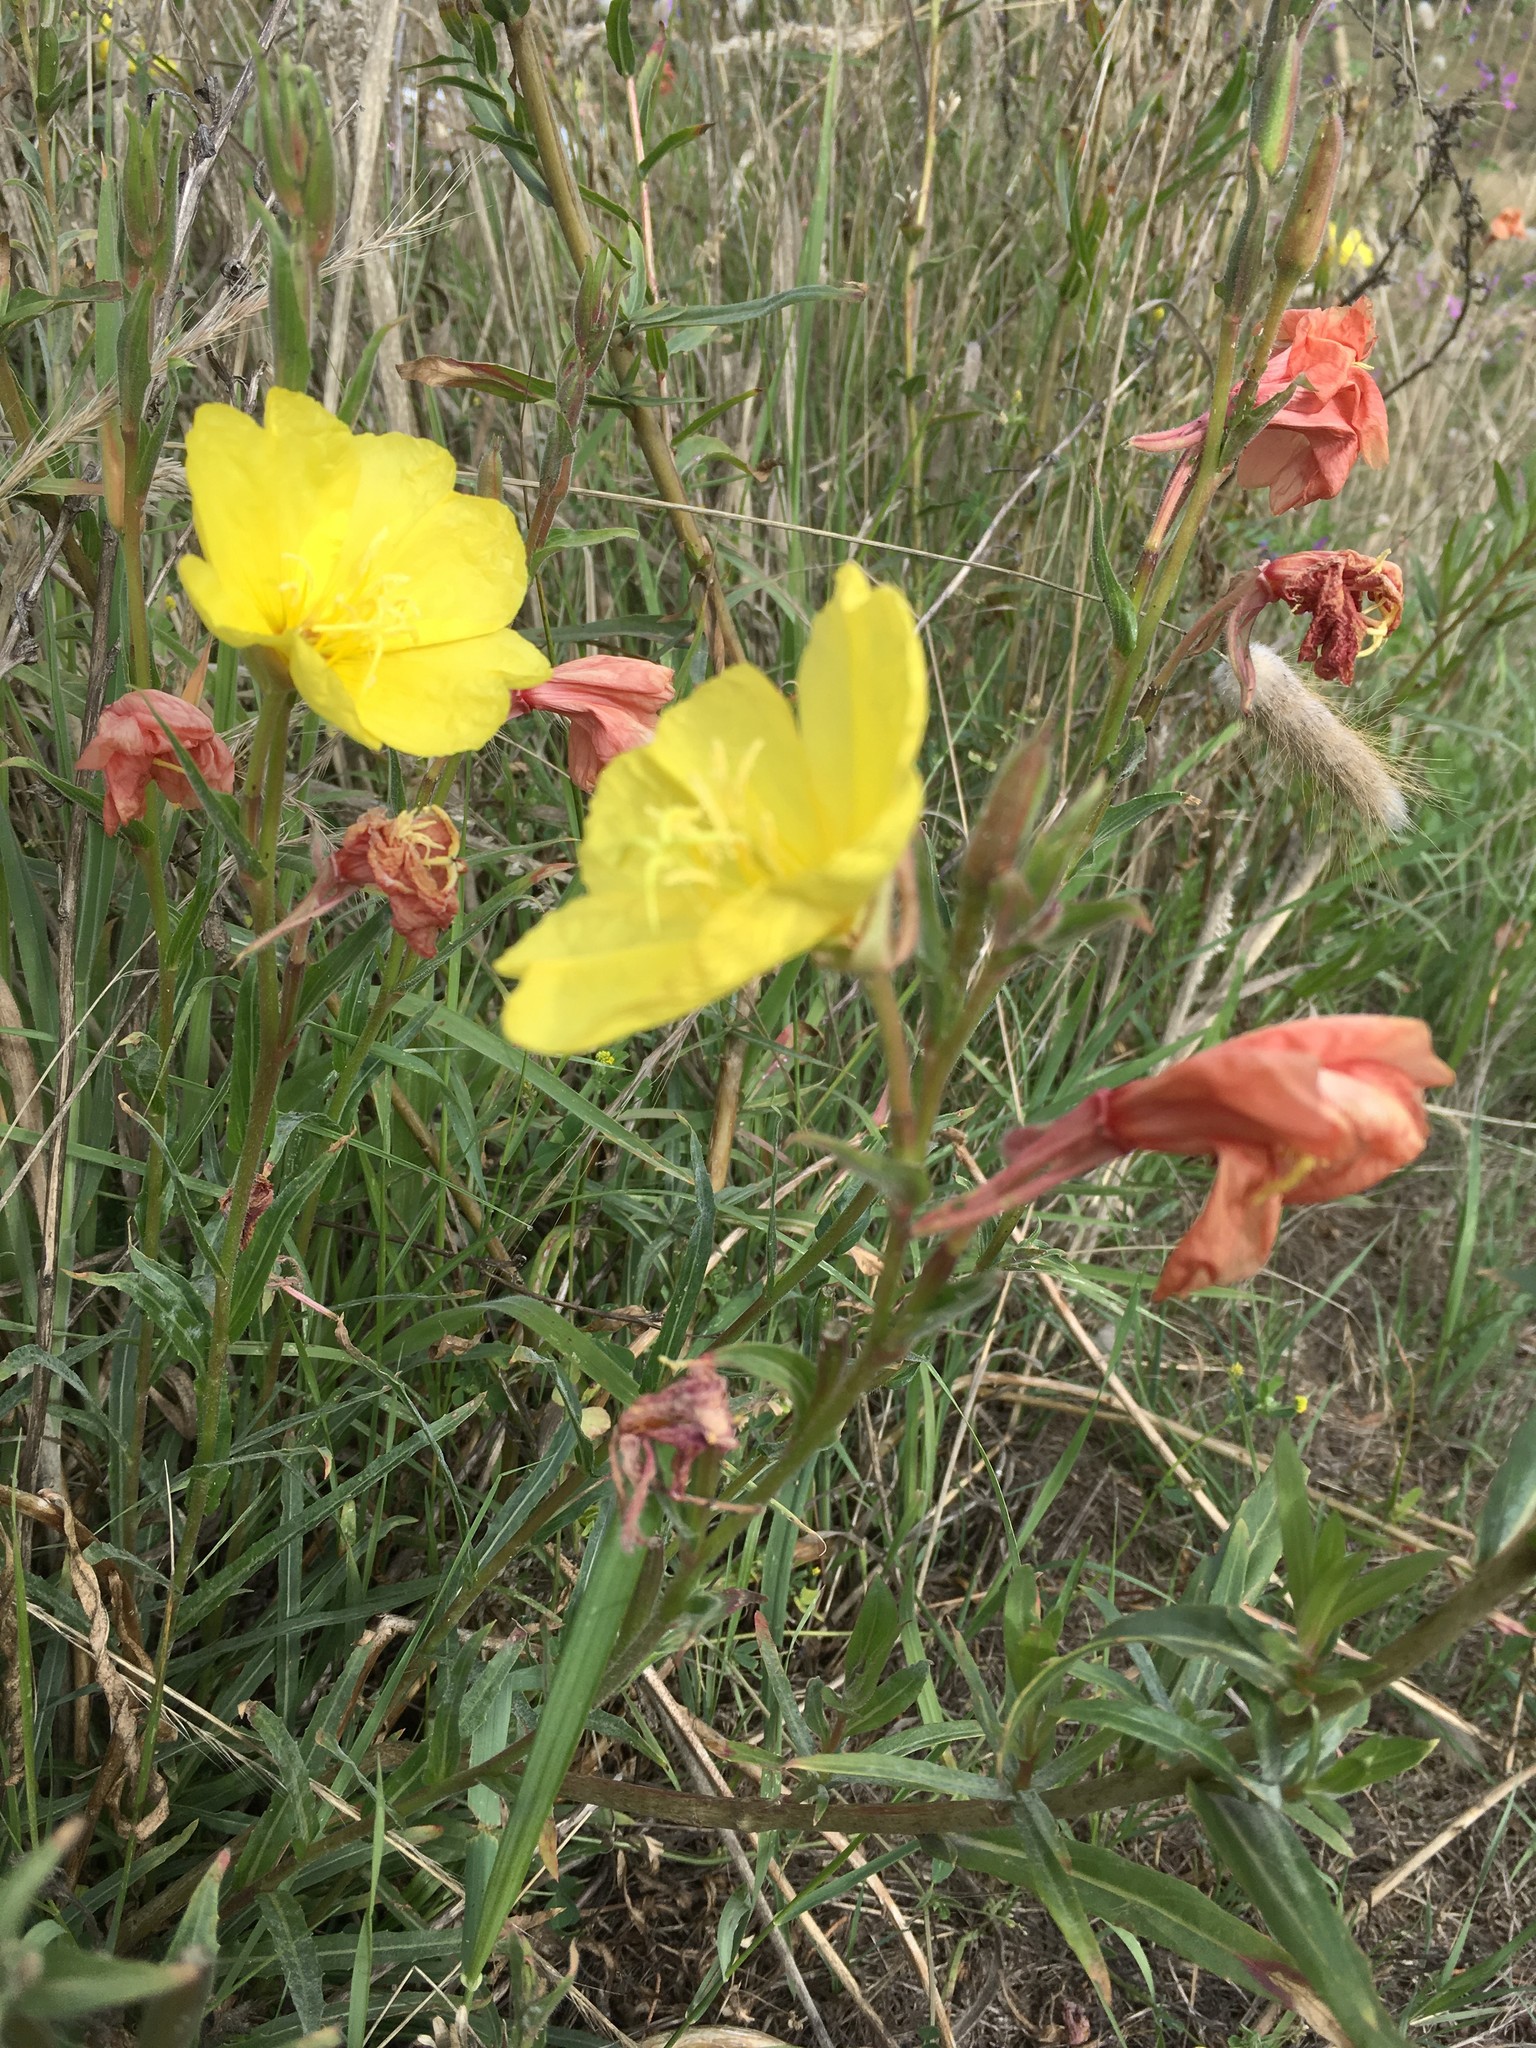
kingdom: Plantae
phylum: Tracheophyta
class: Magnoliopsida
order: Myrtales
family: Onagraceae
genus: Oenothera
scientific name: Oenothera stricta
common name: Fragrant evening-primrose
